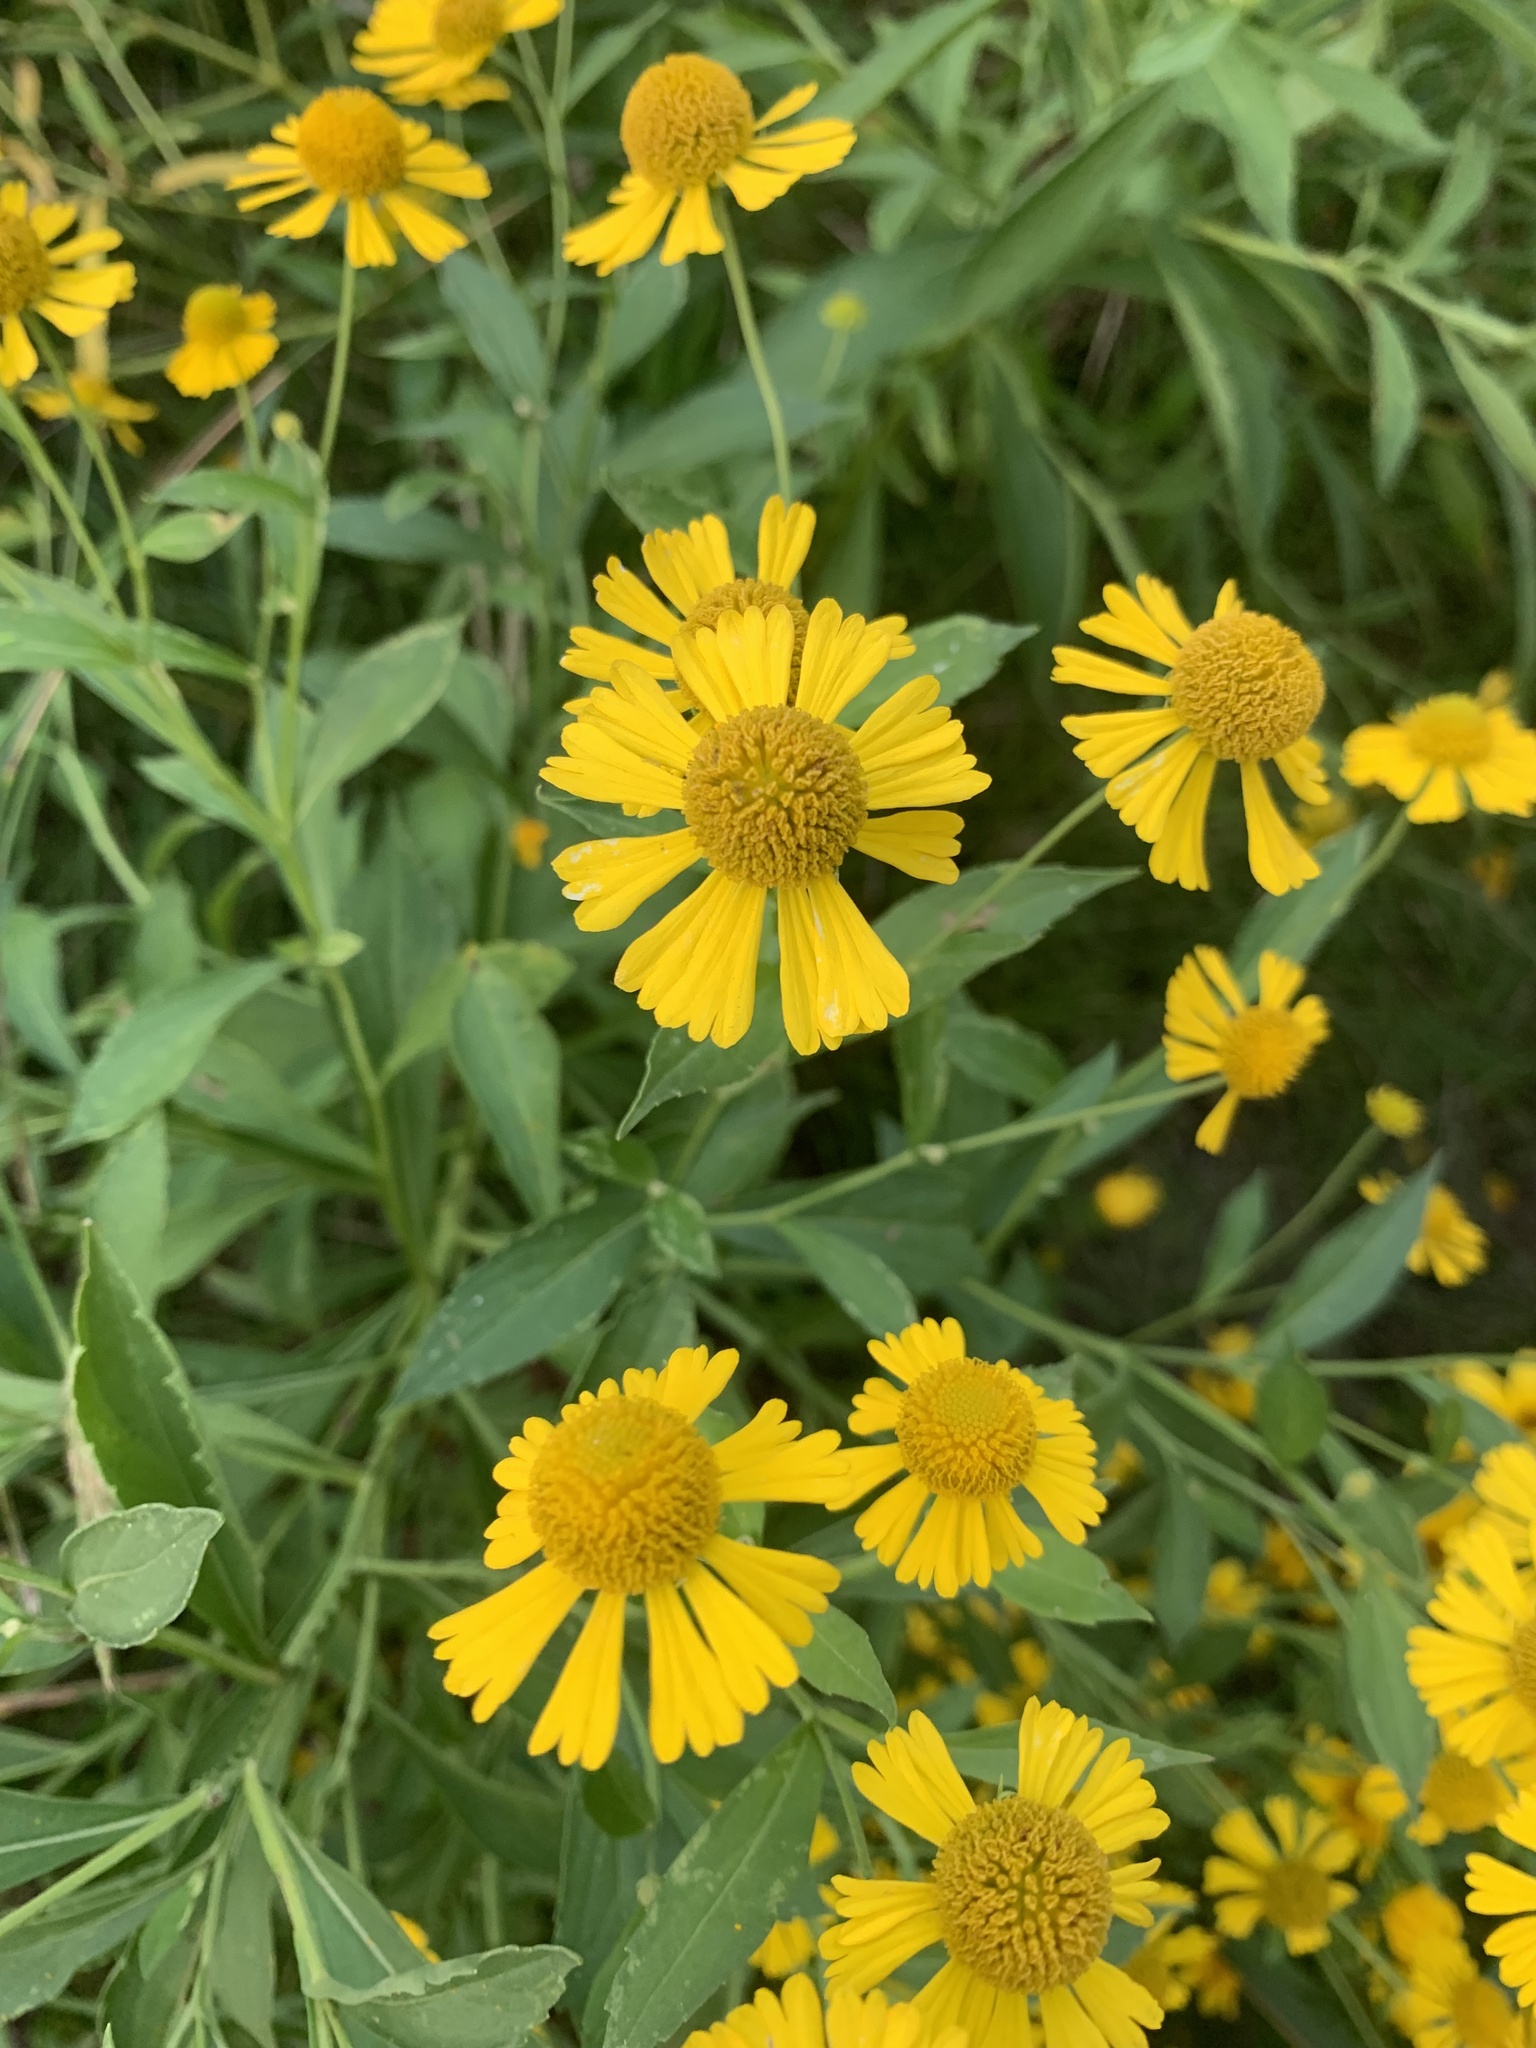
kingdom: Plantae
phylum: Tracheophyta
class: Magnoliopsida
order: Asterales
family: Asteraceae
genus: Helenium
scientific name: Helenium autumnale
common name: Sneezeweed
